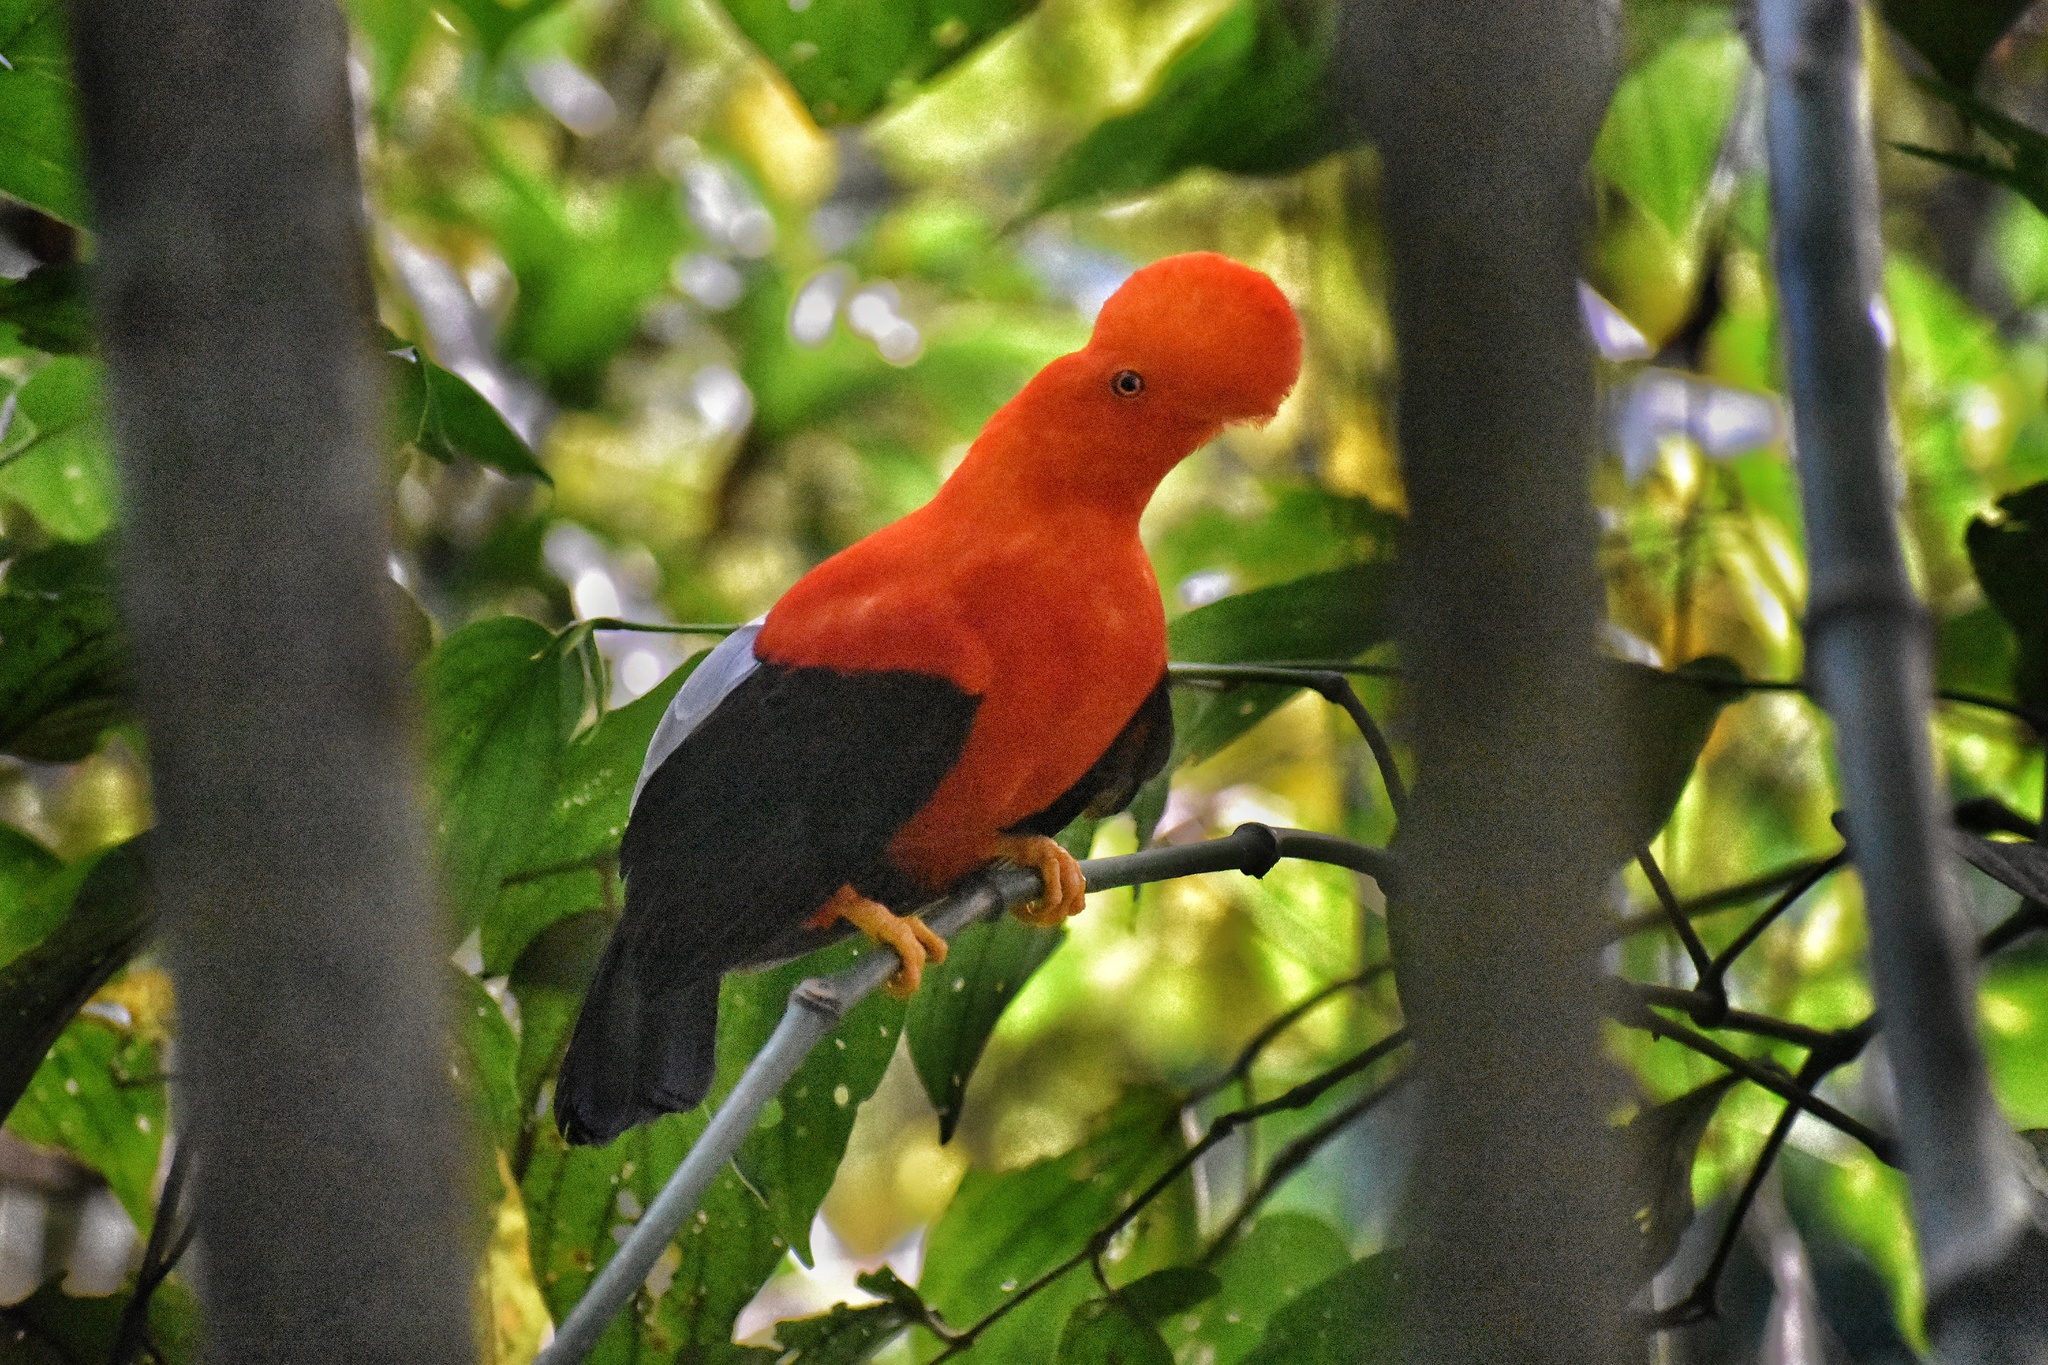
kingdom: Animalia
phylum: Chordata
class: Aves
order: Passeriformes
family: Cotingidae
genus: Rupicola
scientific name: Rupicola peruvianus
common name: Andean cock-of-the-rock
